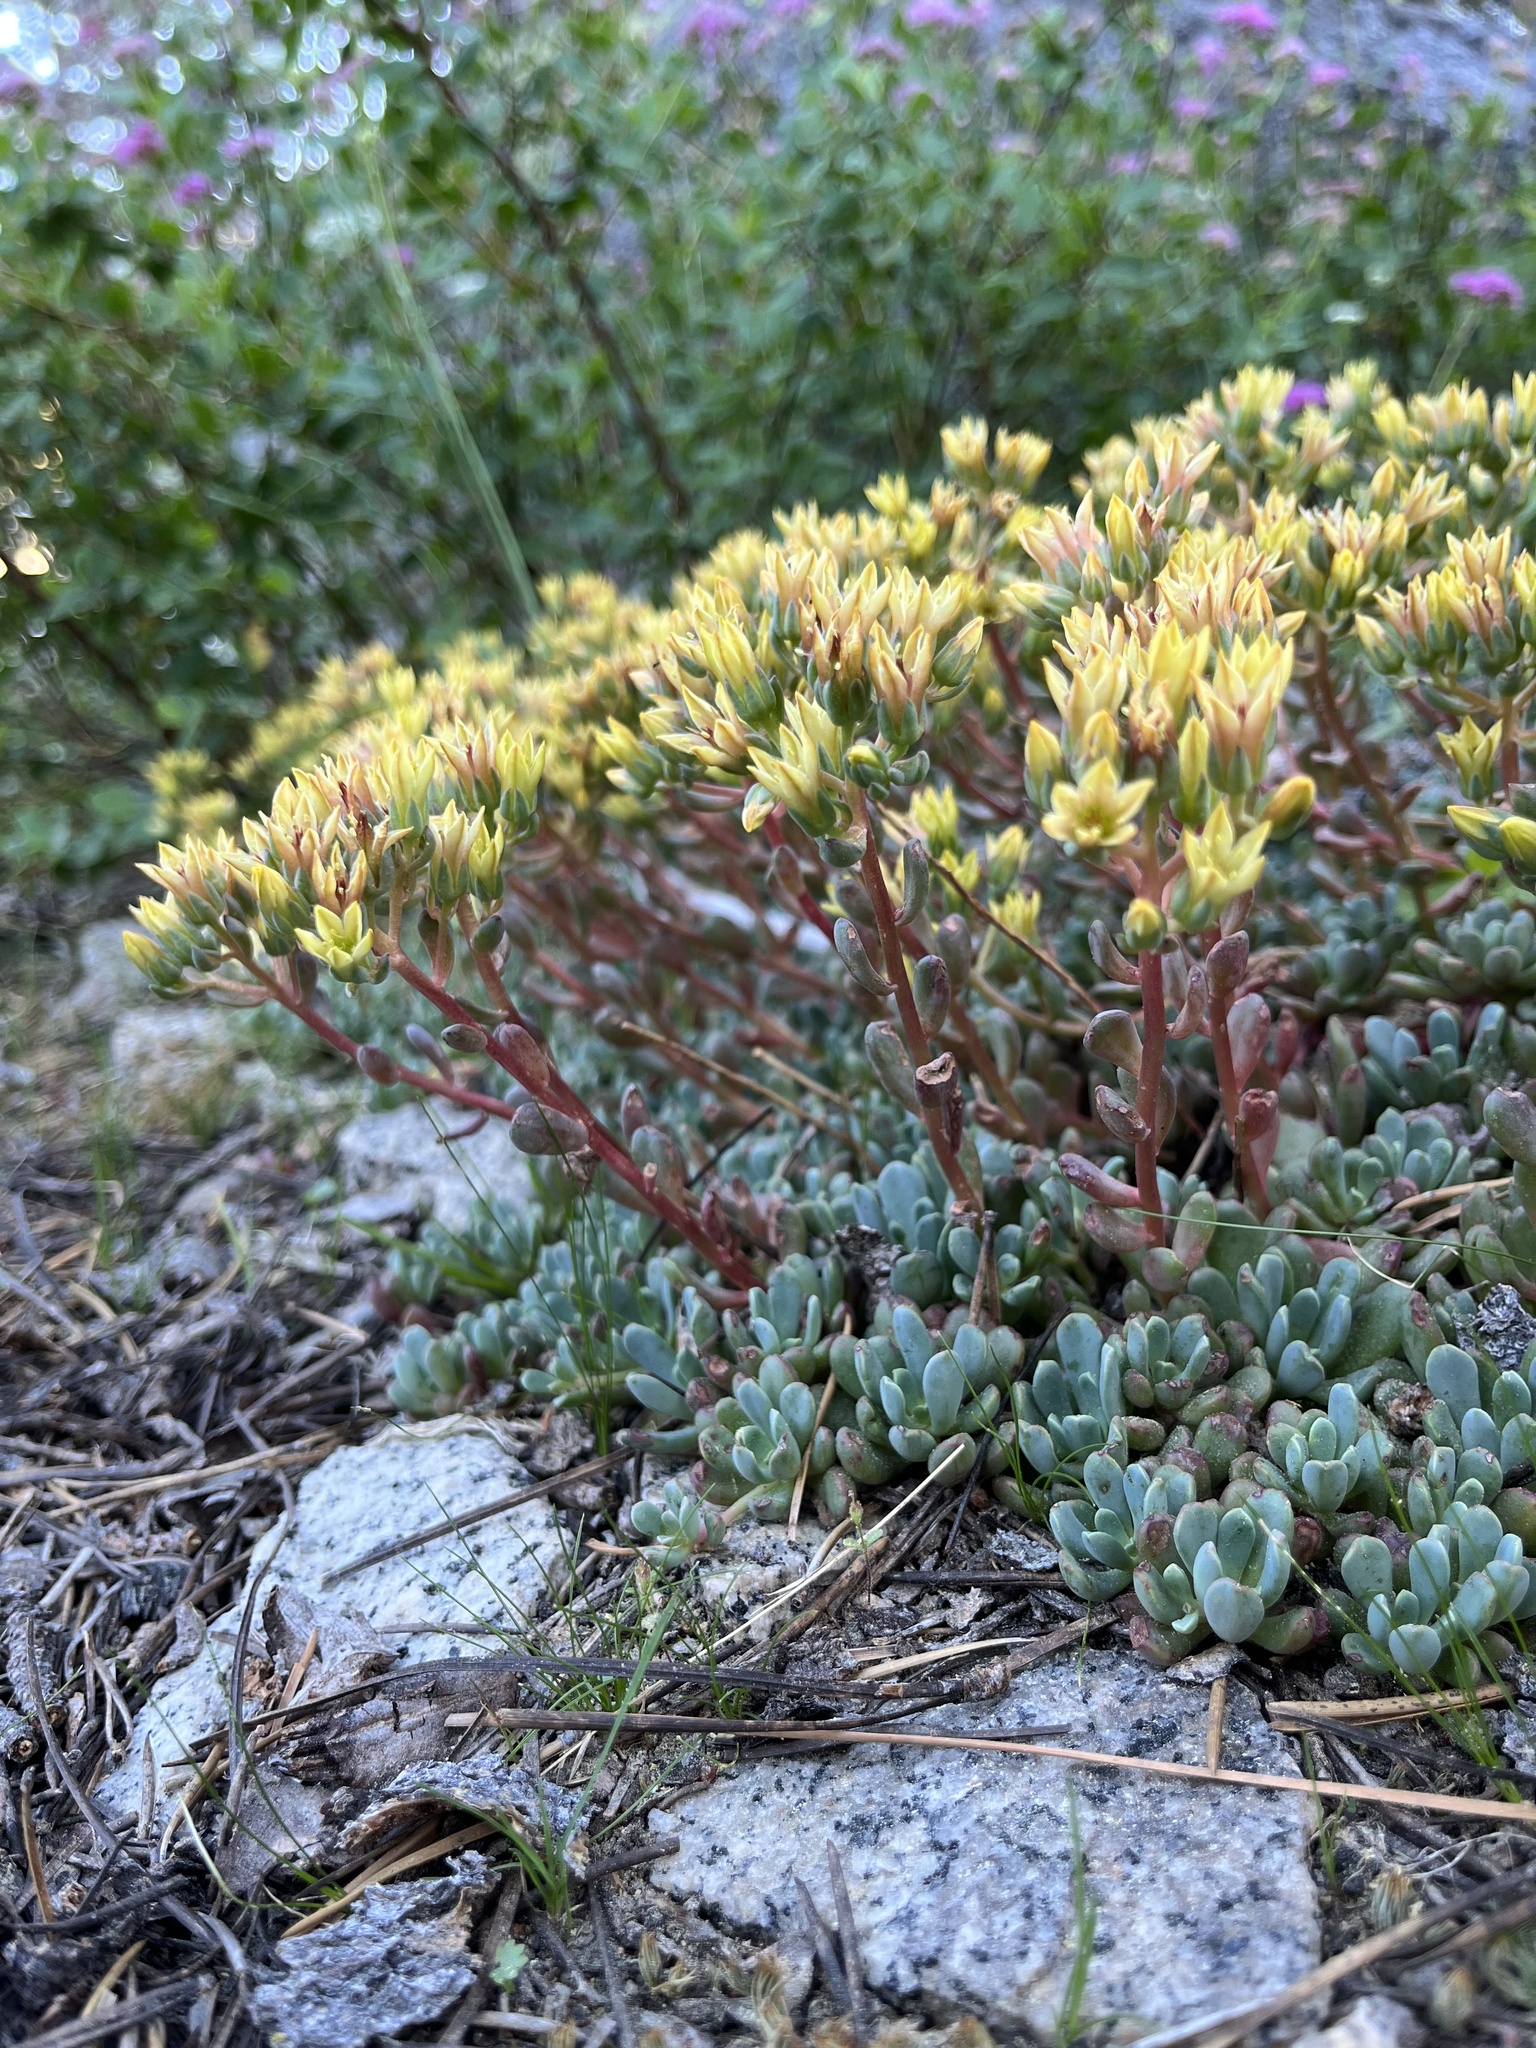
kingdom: Plantae
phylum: Tracheophyta
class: Magnoliopsida
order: Saxifragales
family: Crassulaceae
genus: Sedum
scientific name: Sedum obtusatum
